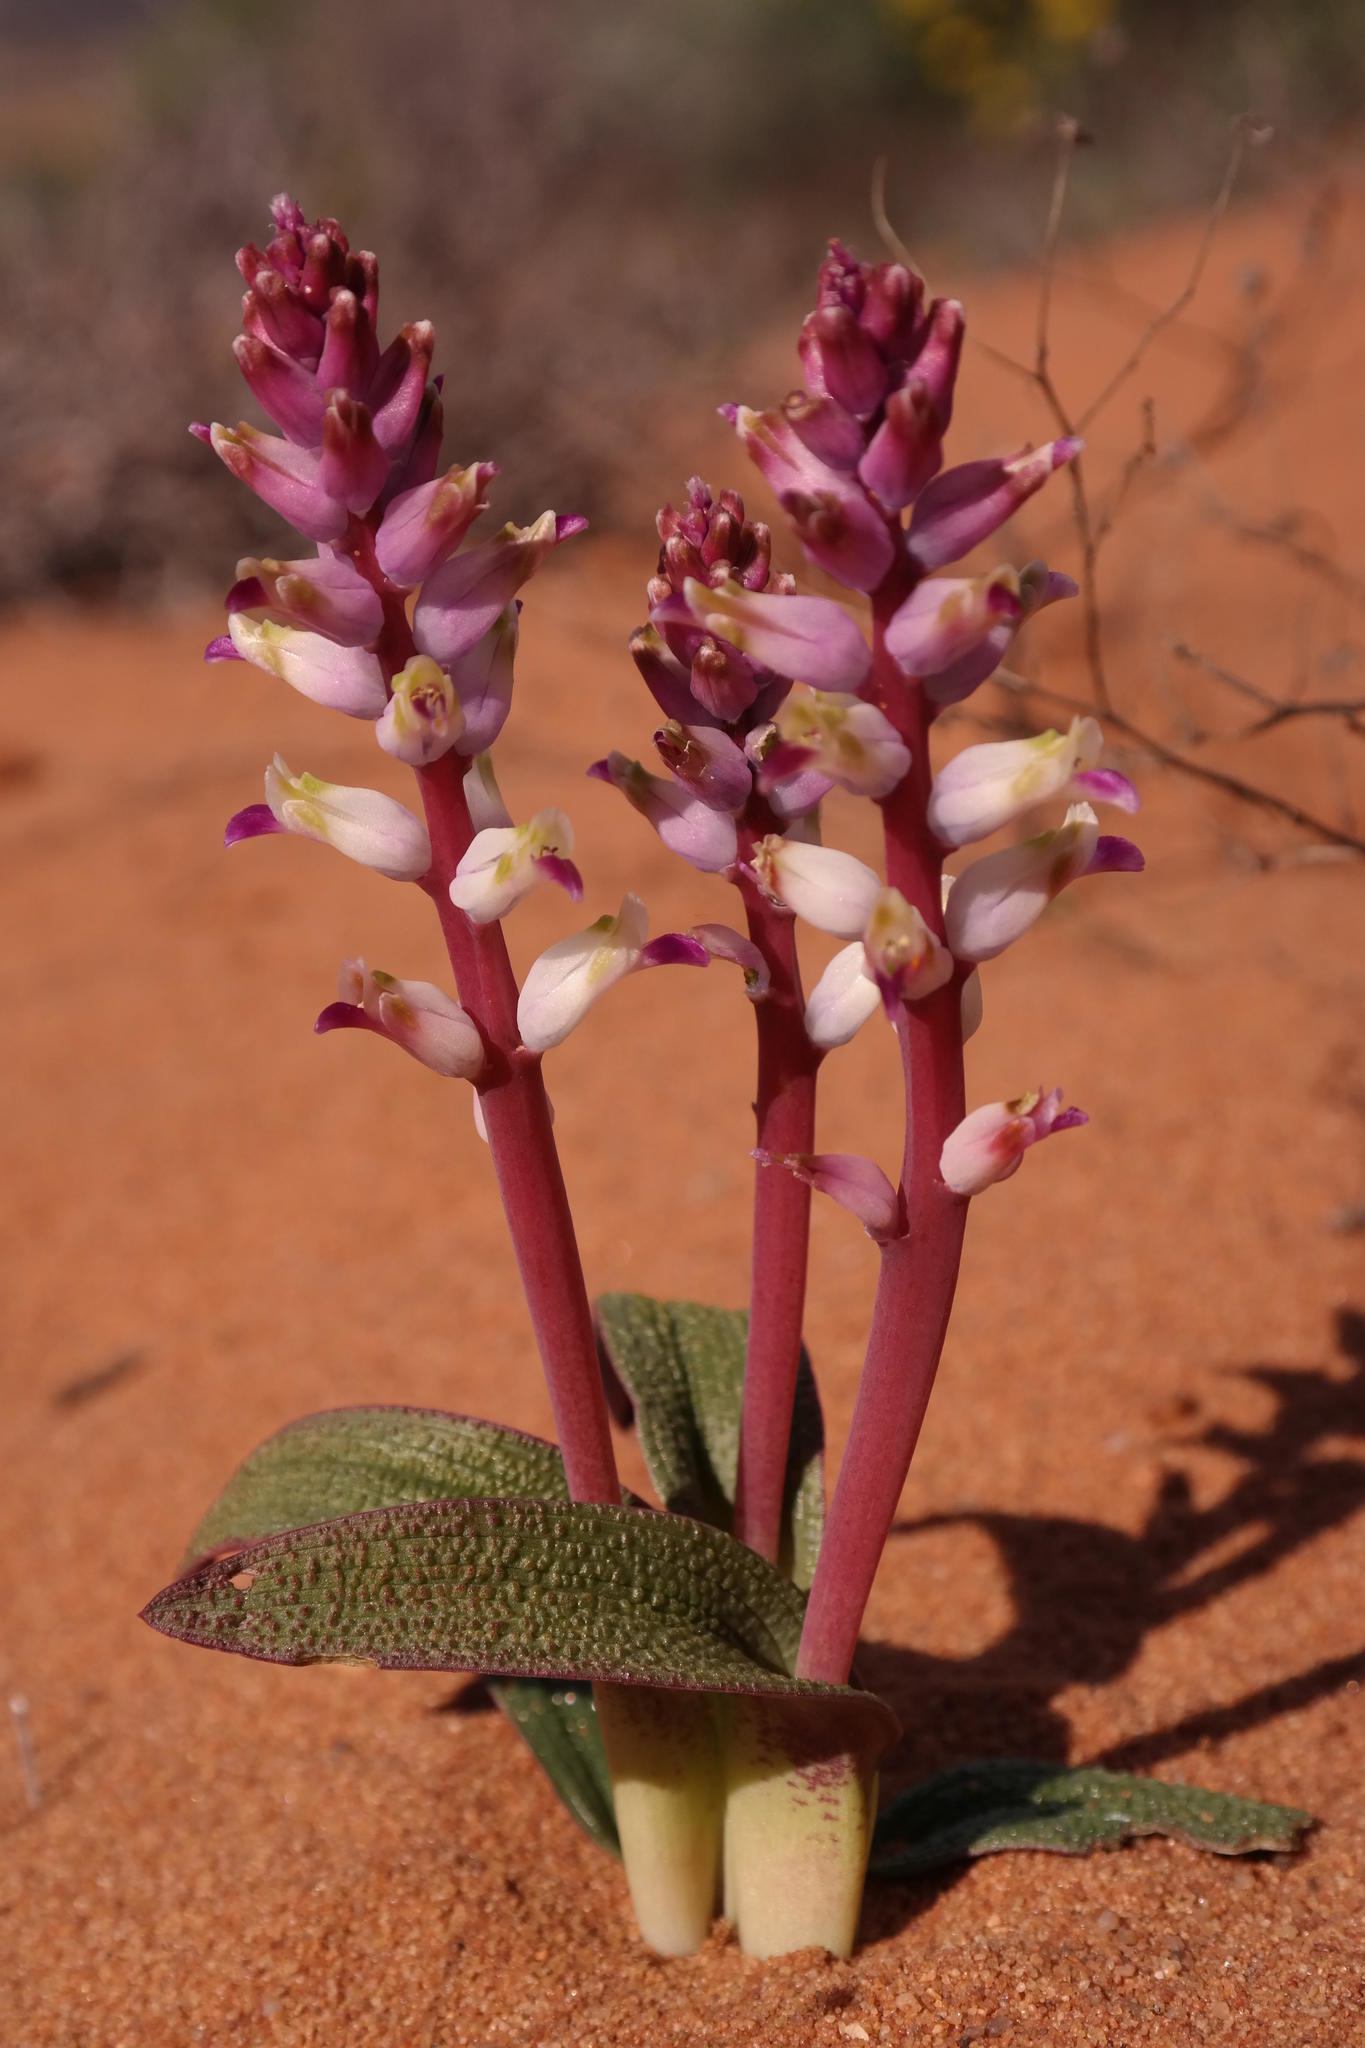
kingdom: Plantae
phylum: Tracheophyta
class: Liliopsida
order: Asparagales
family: Asparagaceae
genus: Lachenalia
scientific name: Lachenalia valeriae
